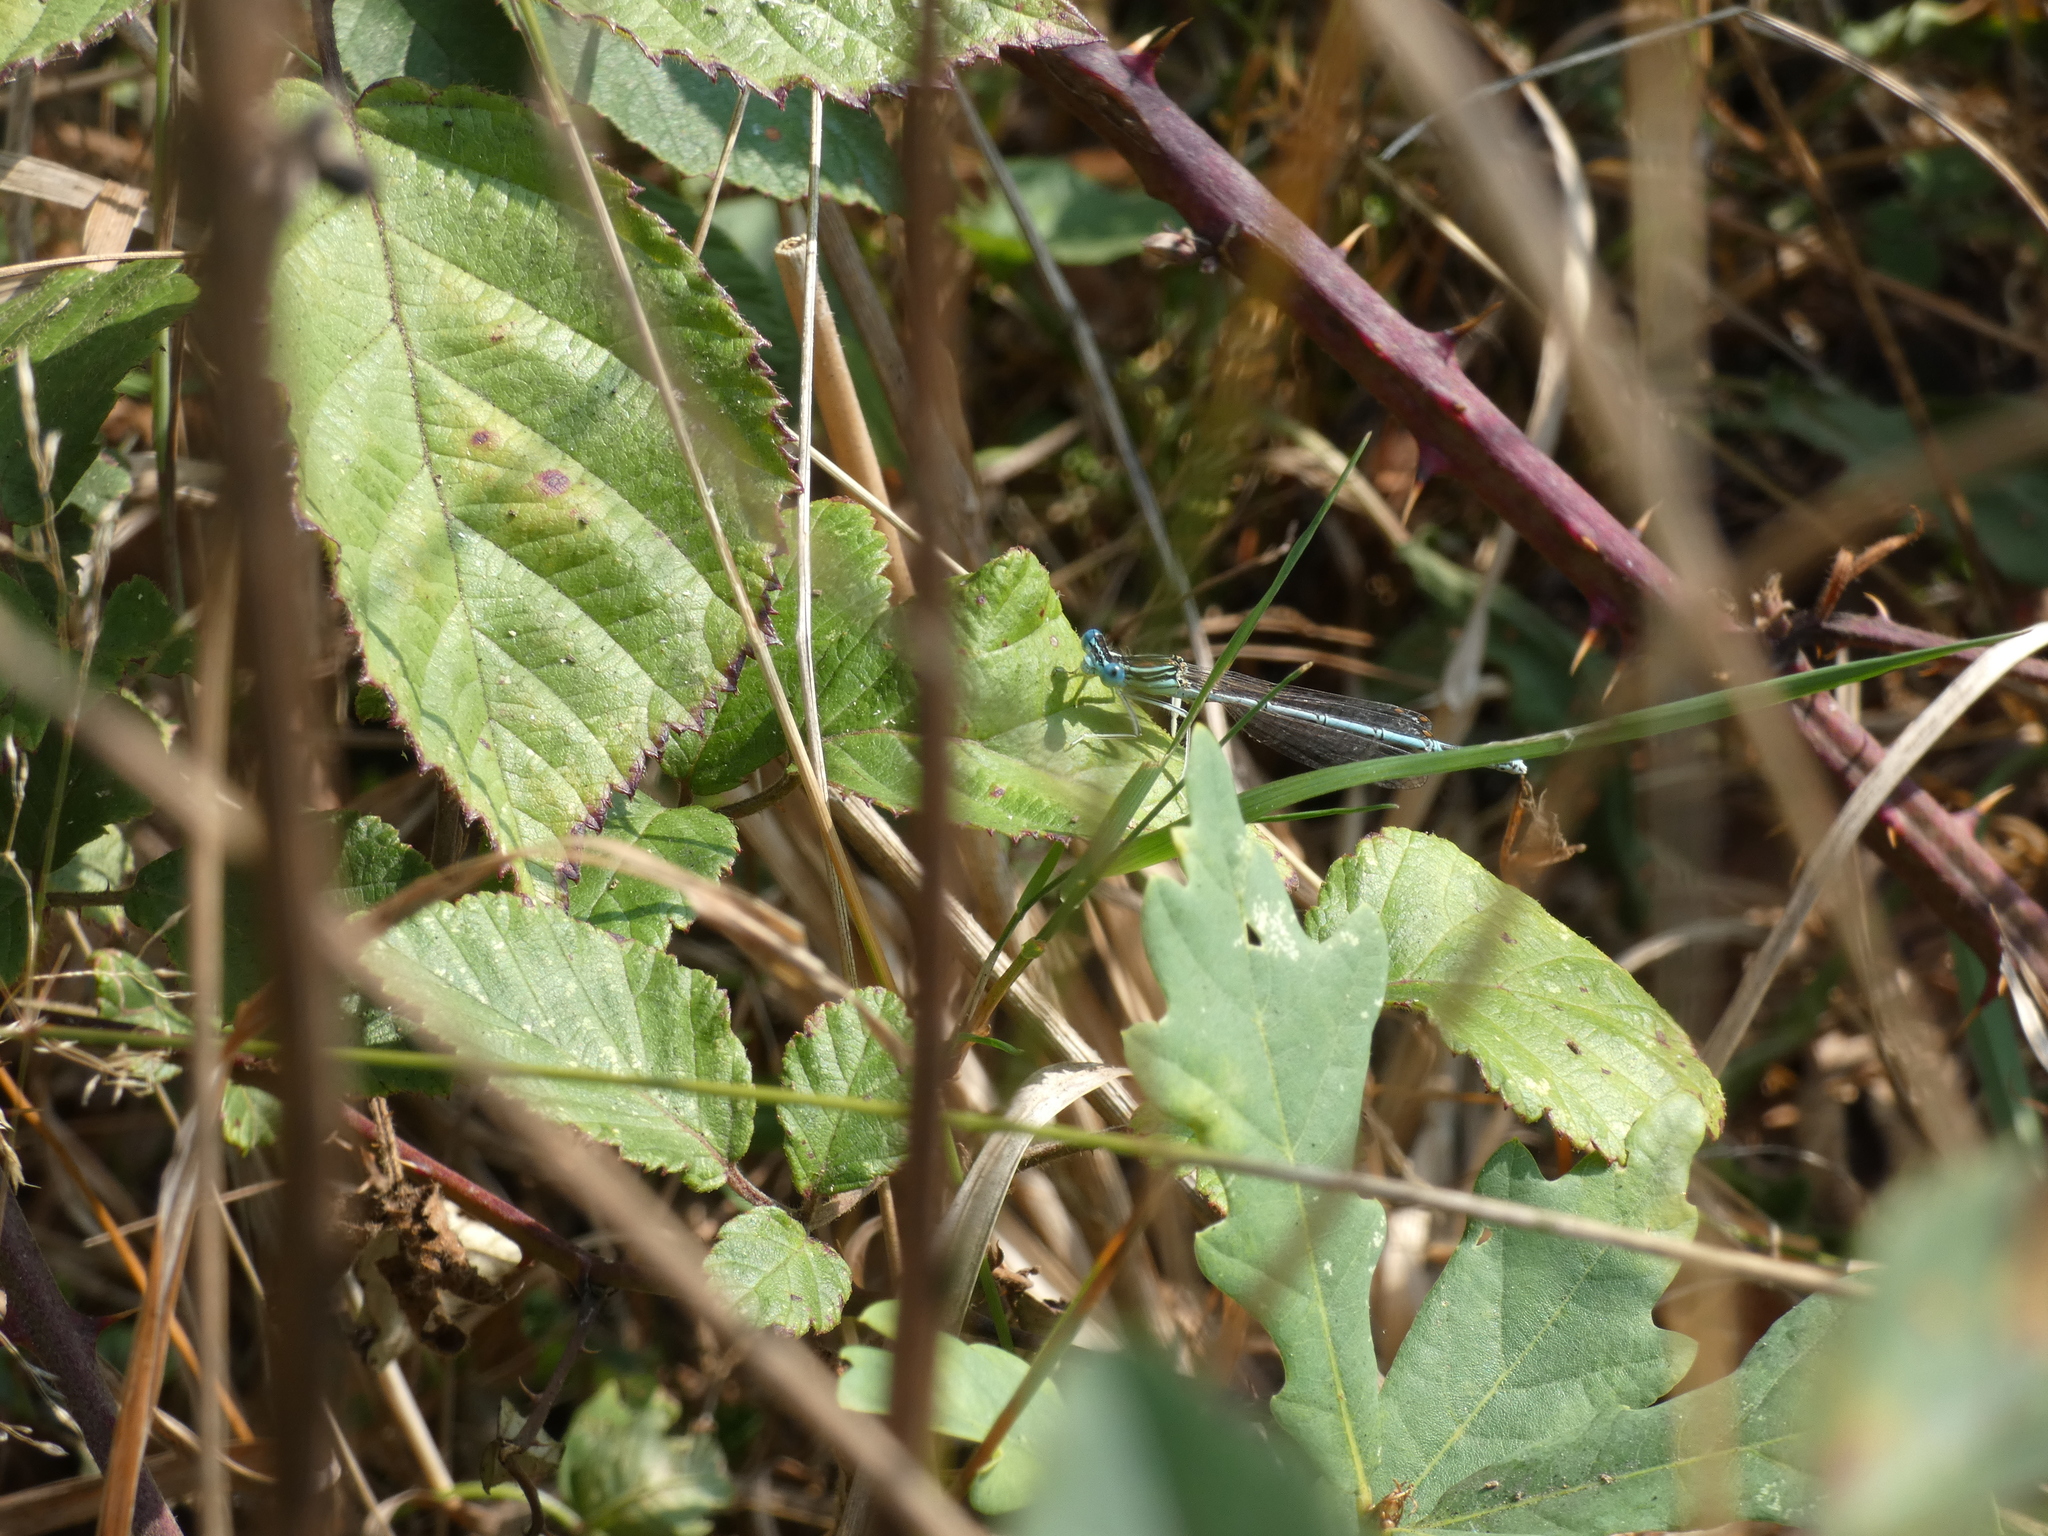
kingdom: Animalia
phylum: Arthropoda
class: Insecta
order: Odonata
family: Platycnemididae
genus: Platycnemis
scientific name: Platycnemis pennipes
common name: White-legged damselfly
